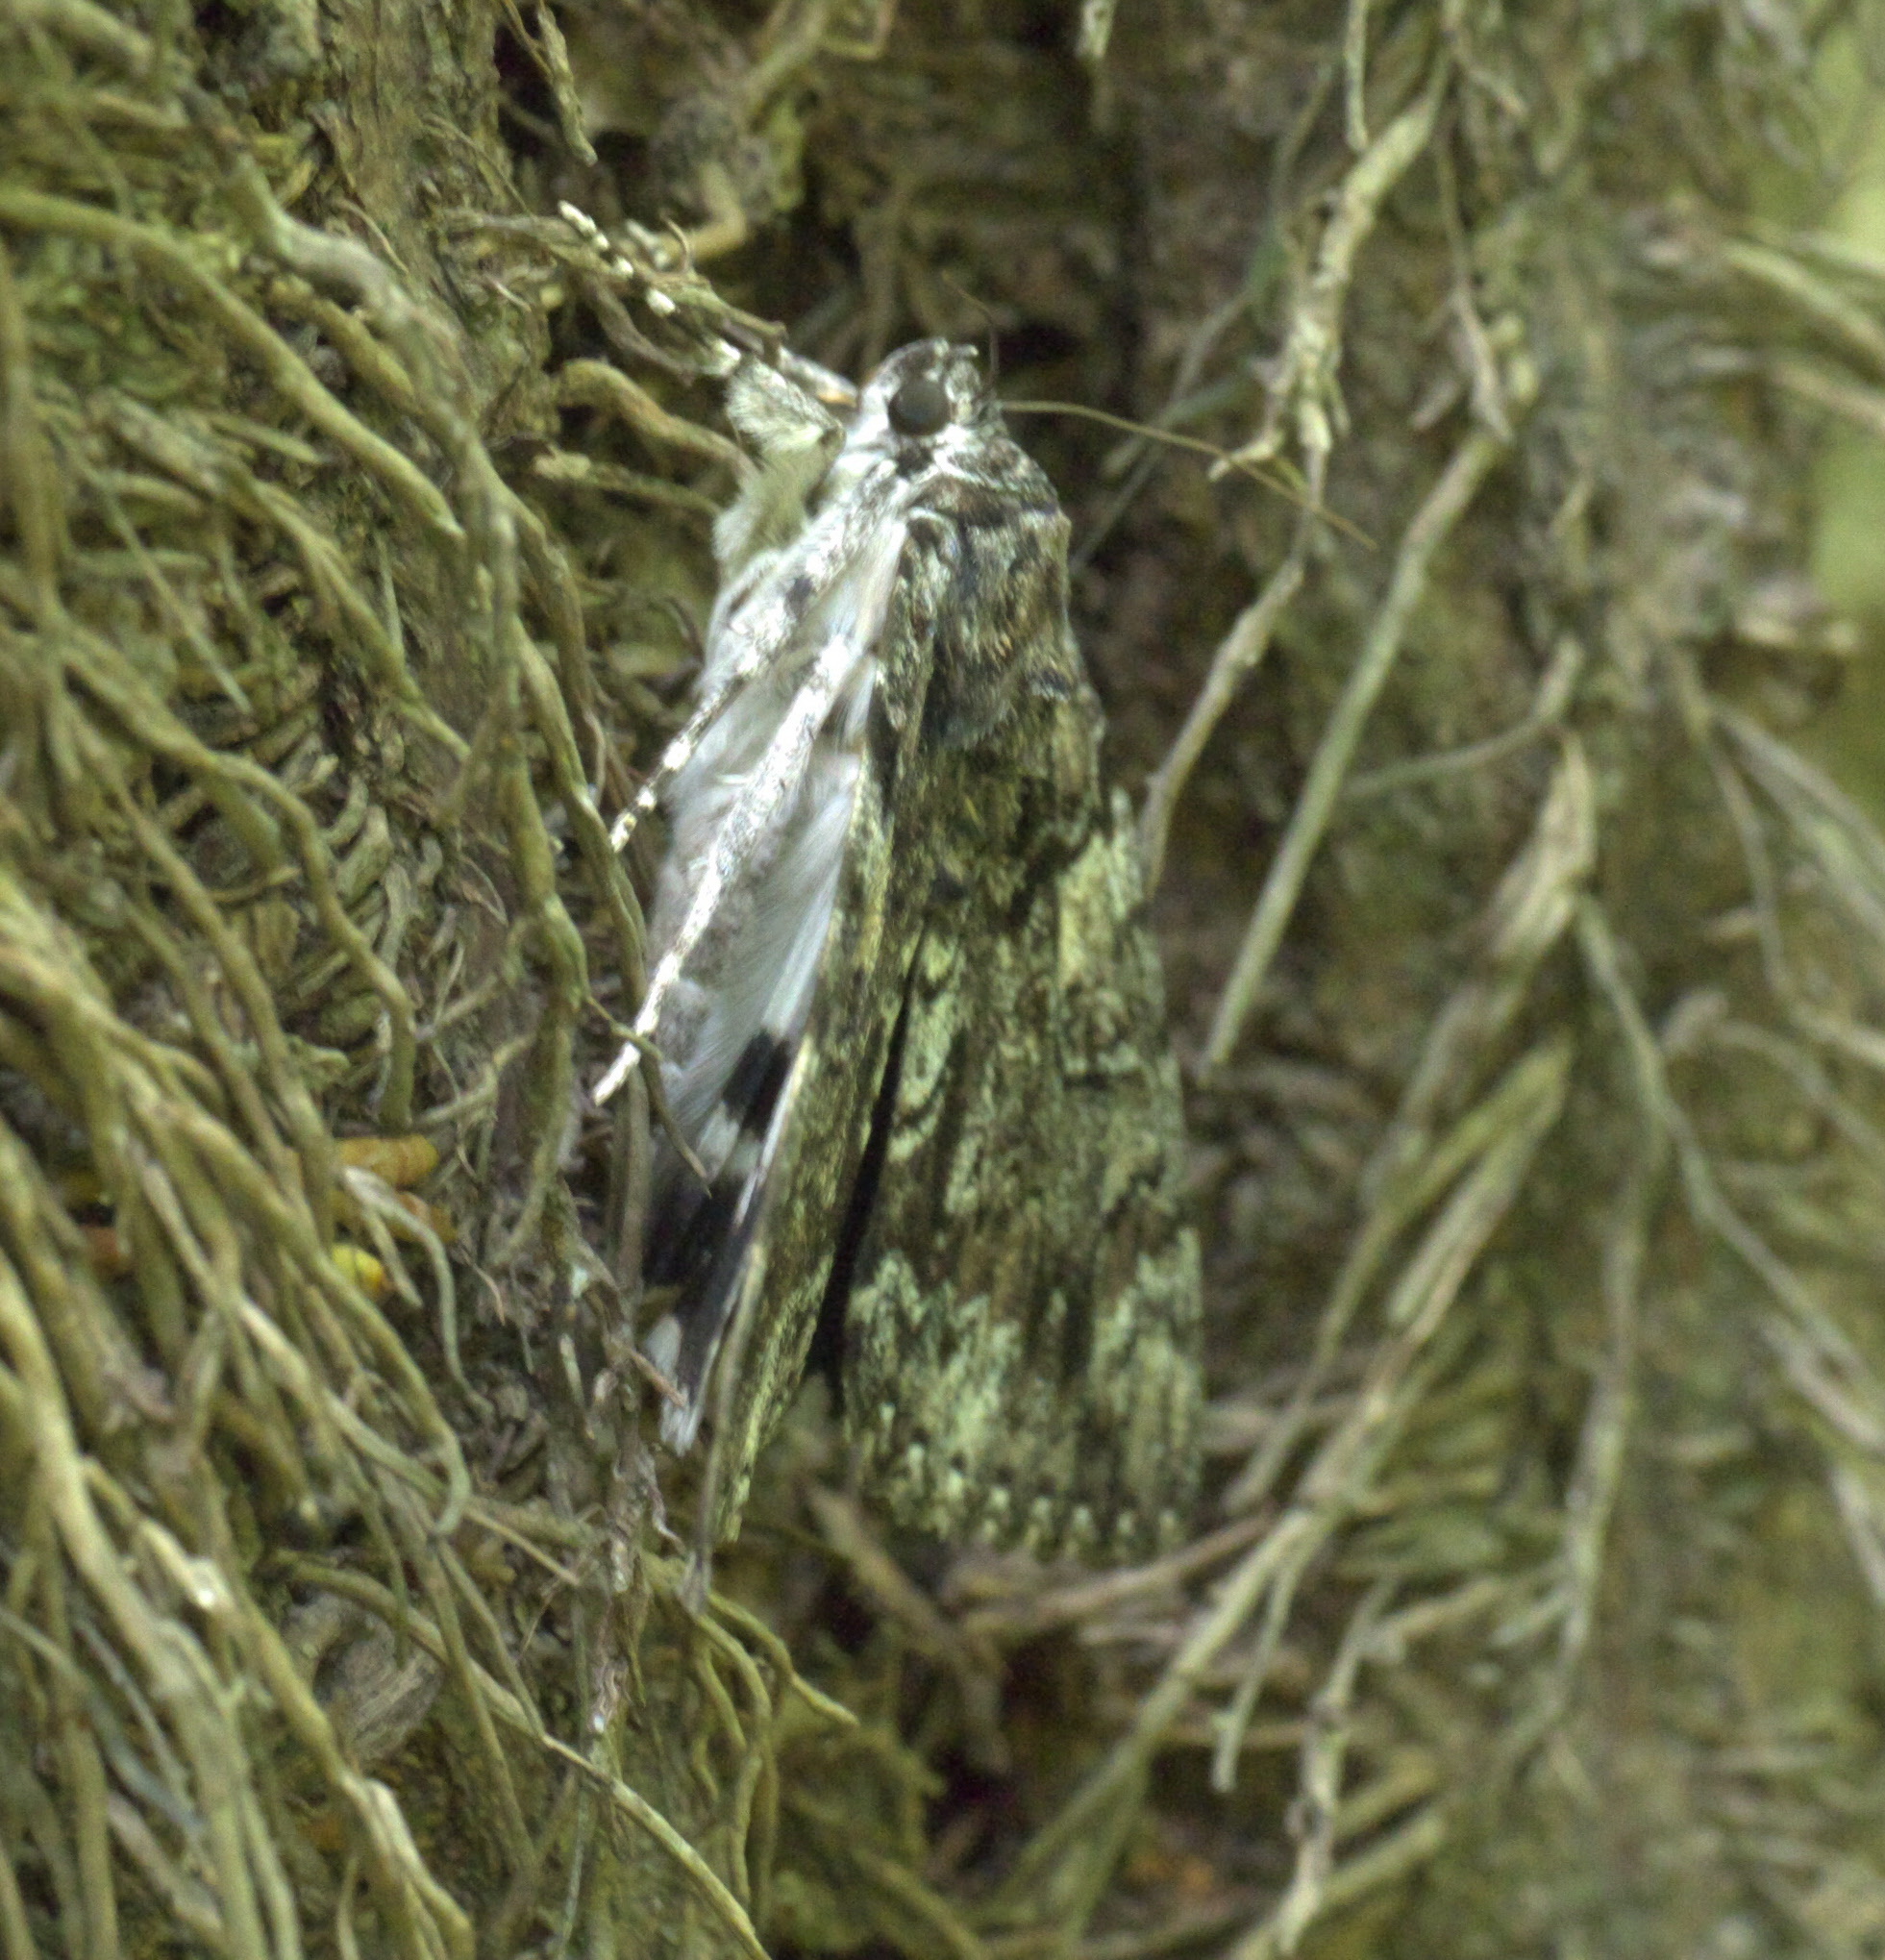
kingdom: Animalia
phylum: Arthropoda
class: Insecta
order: Lepidoptera
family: Erebidae
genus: Catocala
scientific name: Catocala lacrymosa
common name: Tearful underwing
